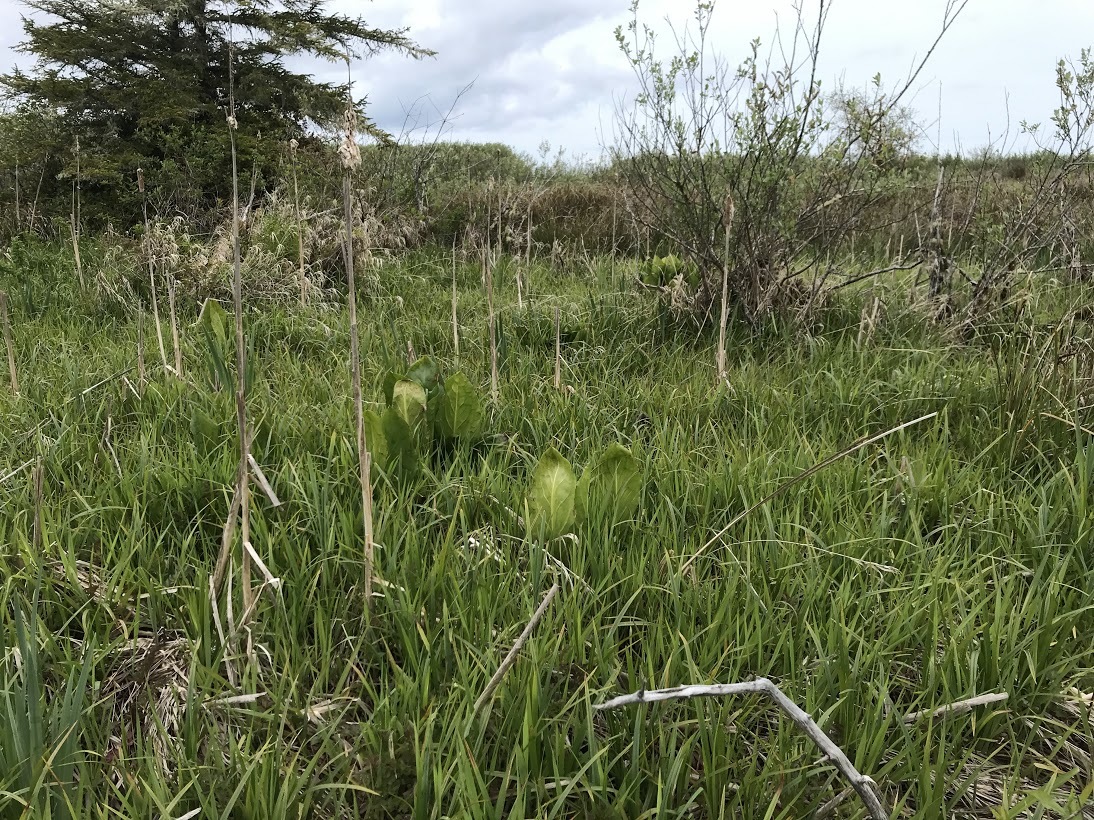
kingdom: Plantae
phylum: Tracheophyta
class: Liliopsida
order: Alismatales
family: Araceae
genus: Lysichiton
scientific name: Lysichiton americanus
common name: American skunk cabbage
